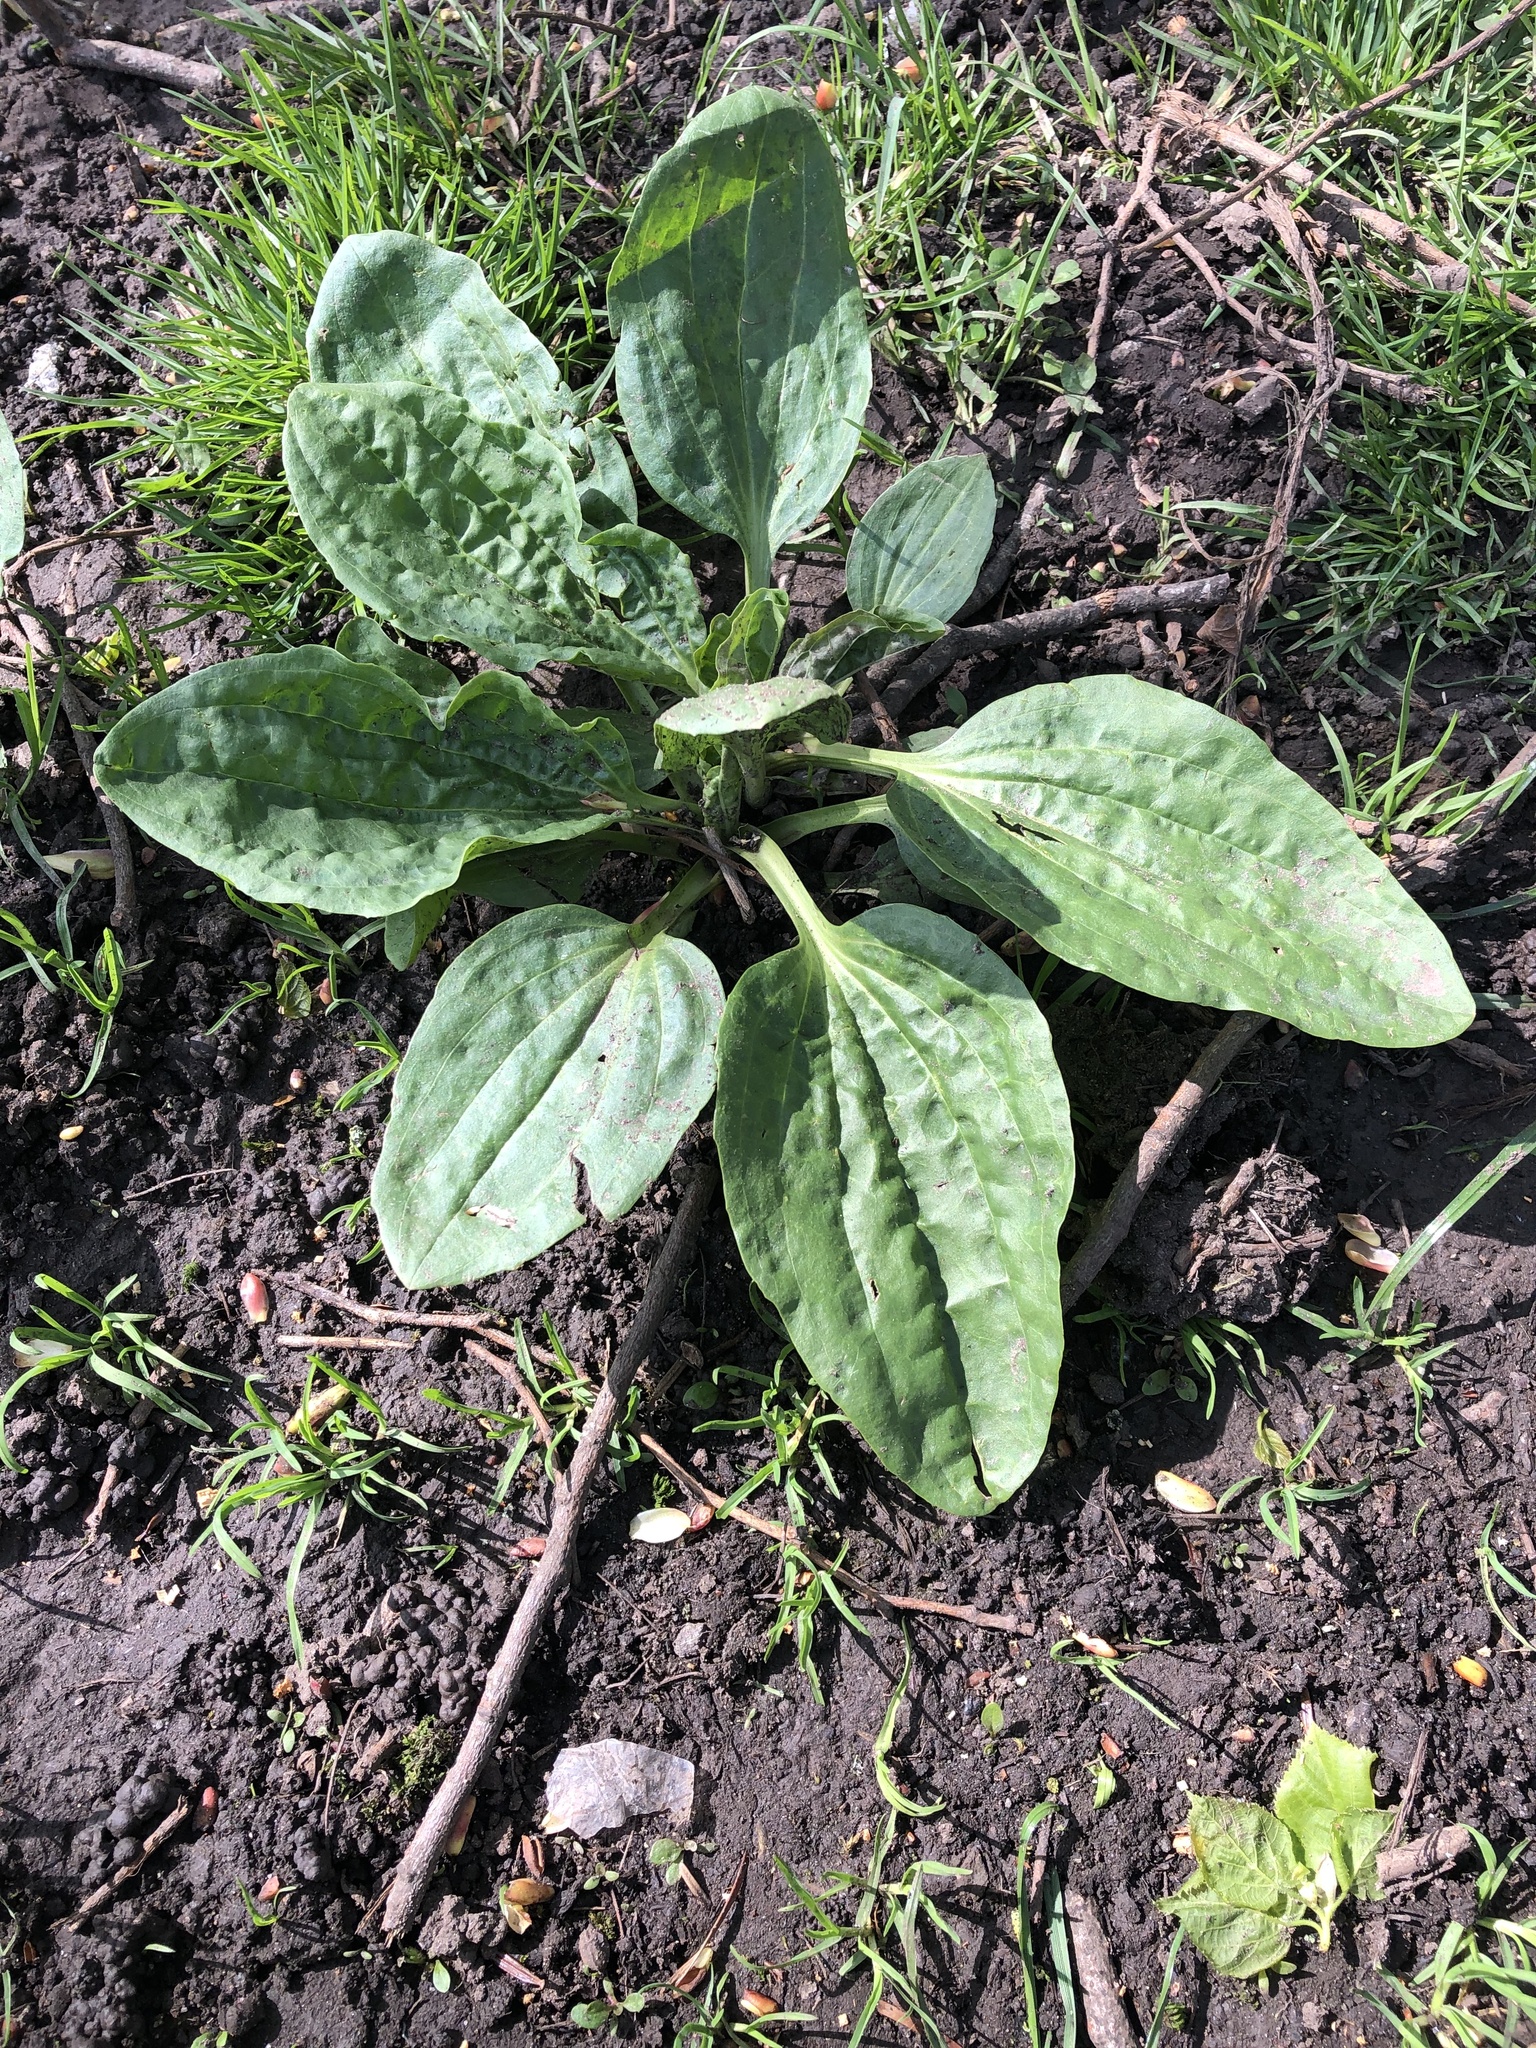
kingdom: Plantae
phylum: Tracheophyta
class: Magnoliopsida
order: Lamiales
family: Plantaginaceae
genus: Plantago
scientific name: Plantago major
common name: Common plantain
